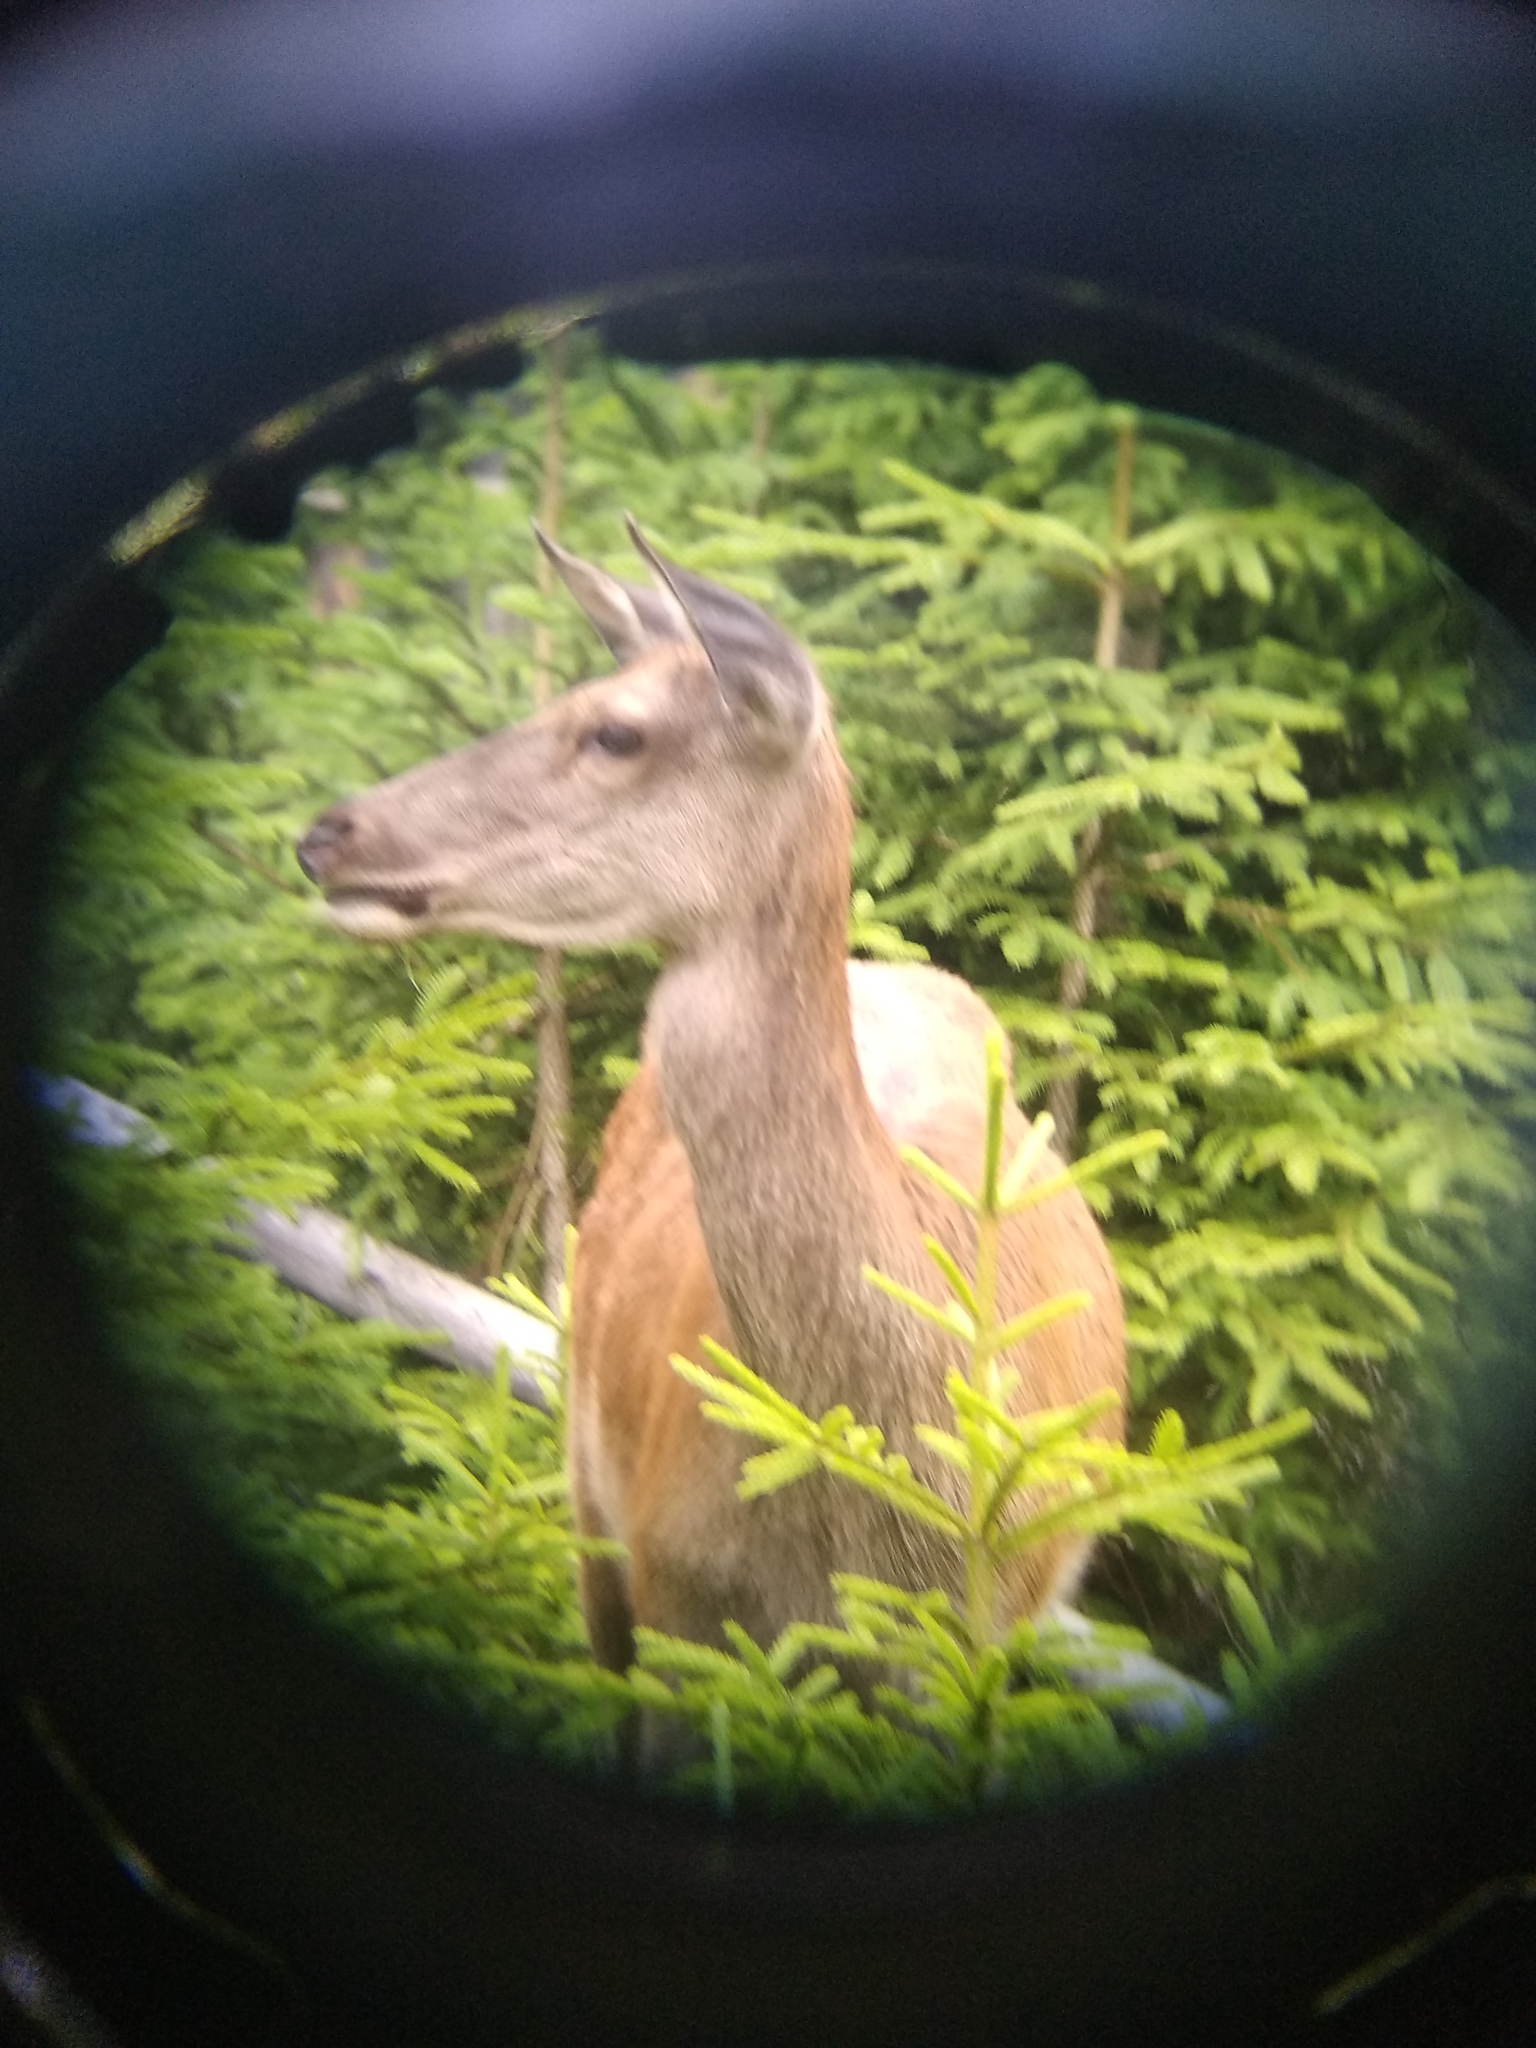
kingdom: Animalia
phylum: Chordata
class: Mammalia
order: Artiodactyla
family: Cervidae
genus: Cervus
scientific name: Cervus elaphus
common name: Red deer
